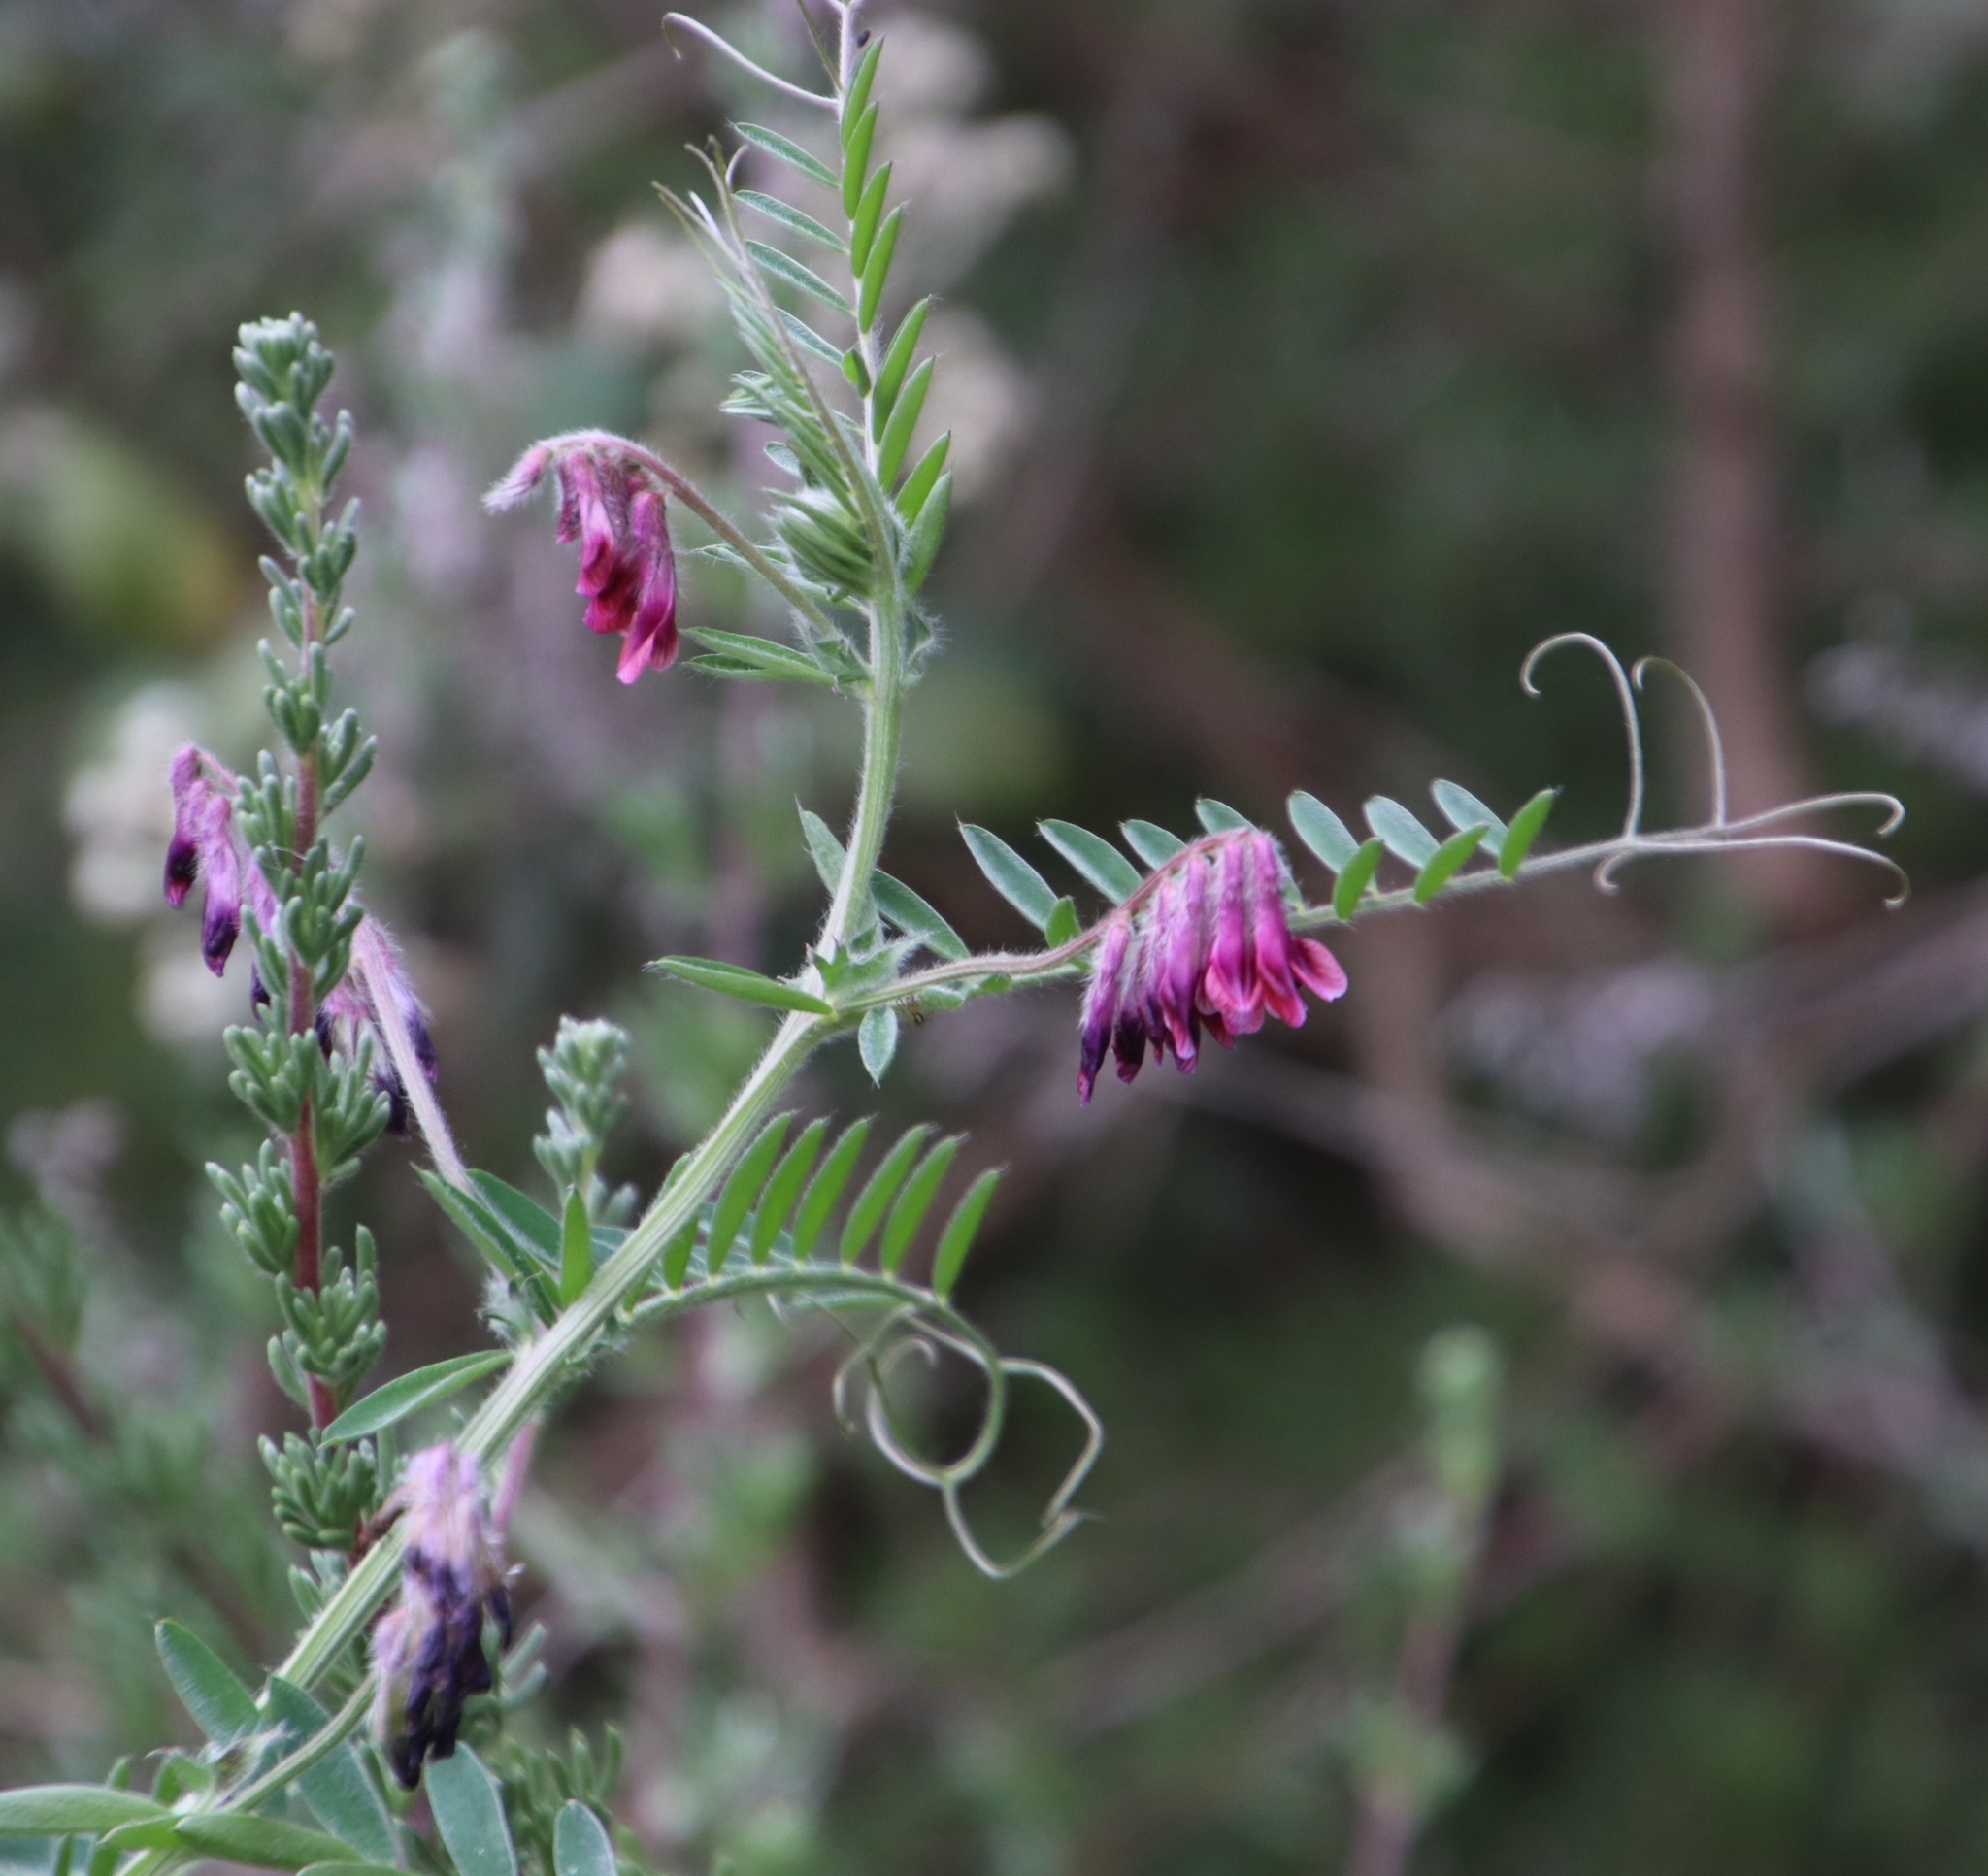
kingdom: Plantae
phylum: Tracheophyta
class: Magnoliopsida
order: Fabales
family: Fabaceae
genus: Vicia
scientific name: Vicia benghalensis
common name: Purple vetch
